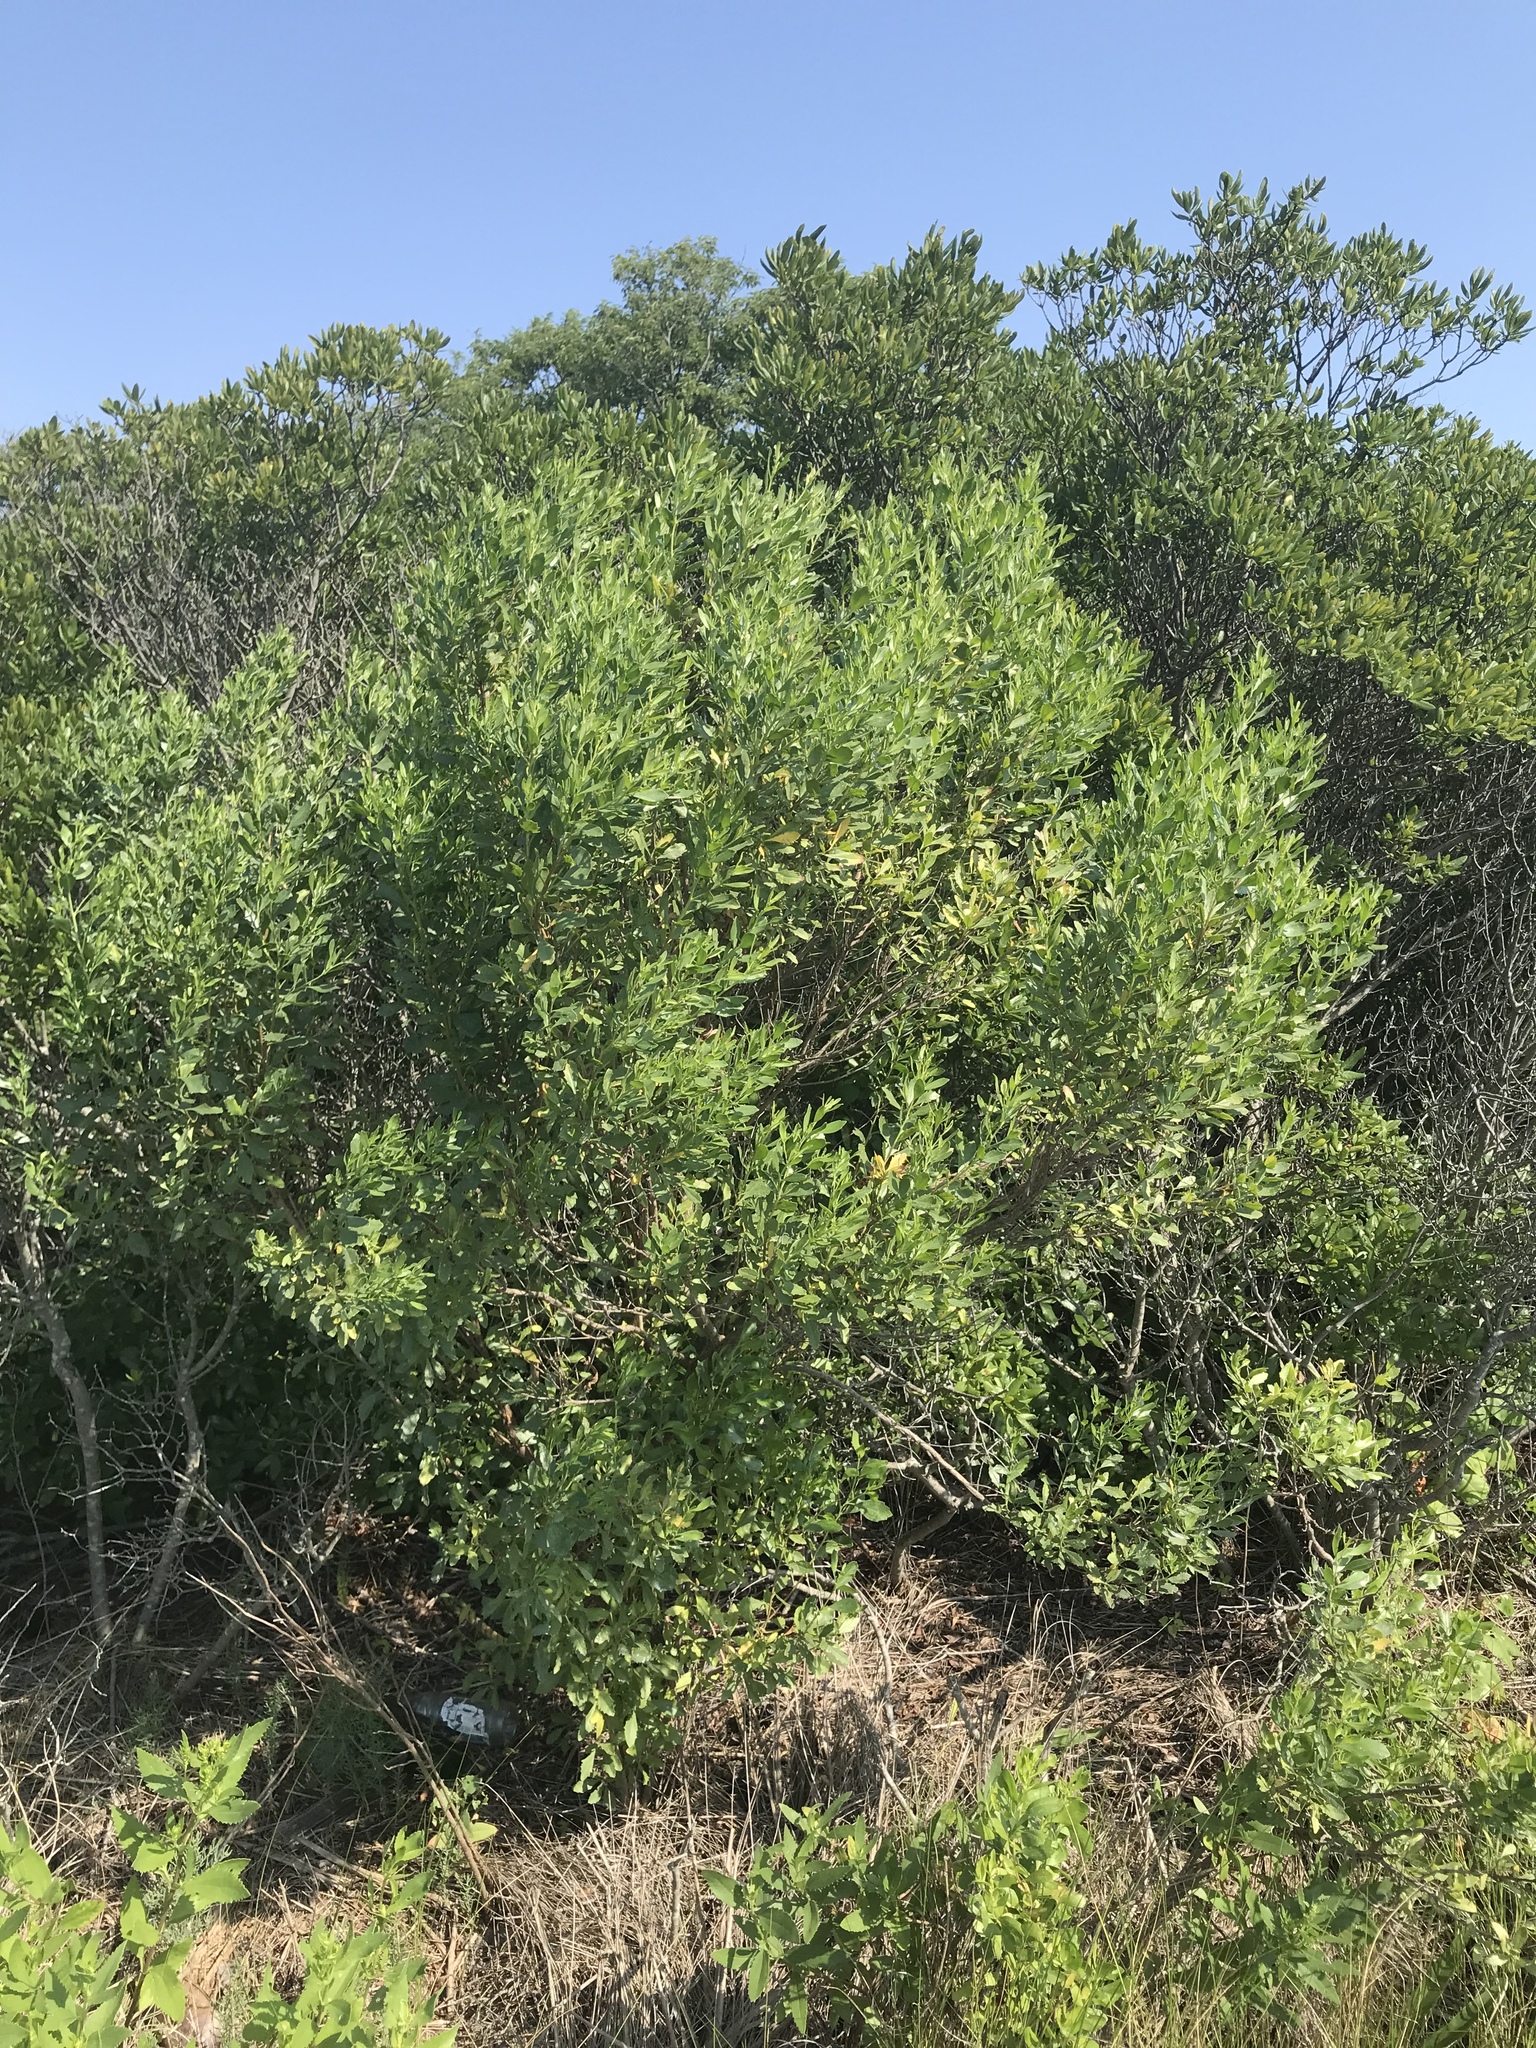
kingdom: Plantae
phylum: Tracheophyta
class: Magnoliopsida
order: Asterales
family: Asteraceae
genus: Baccharis
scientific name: Baccharis halimifolia
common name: Eastern baccharis
